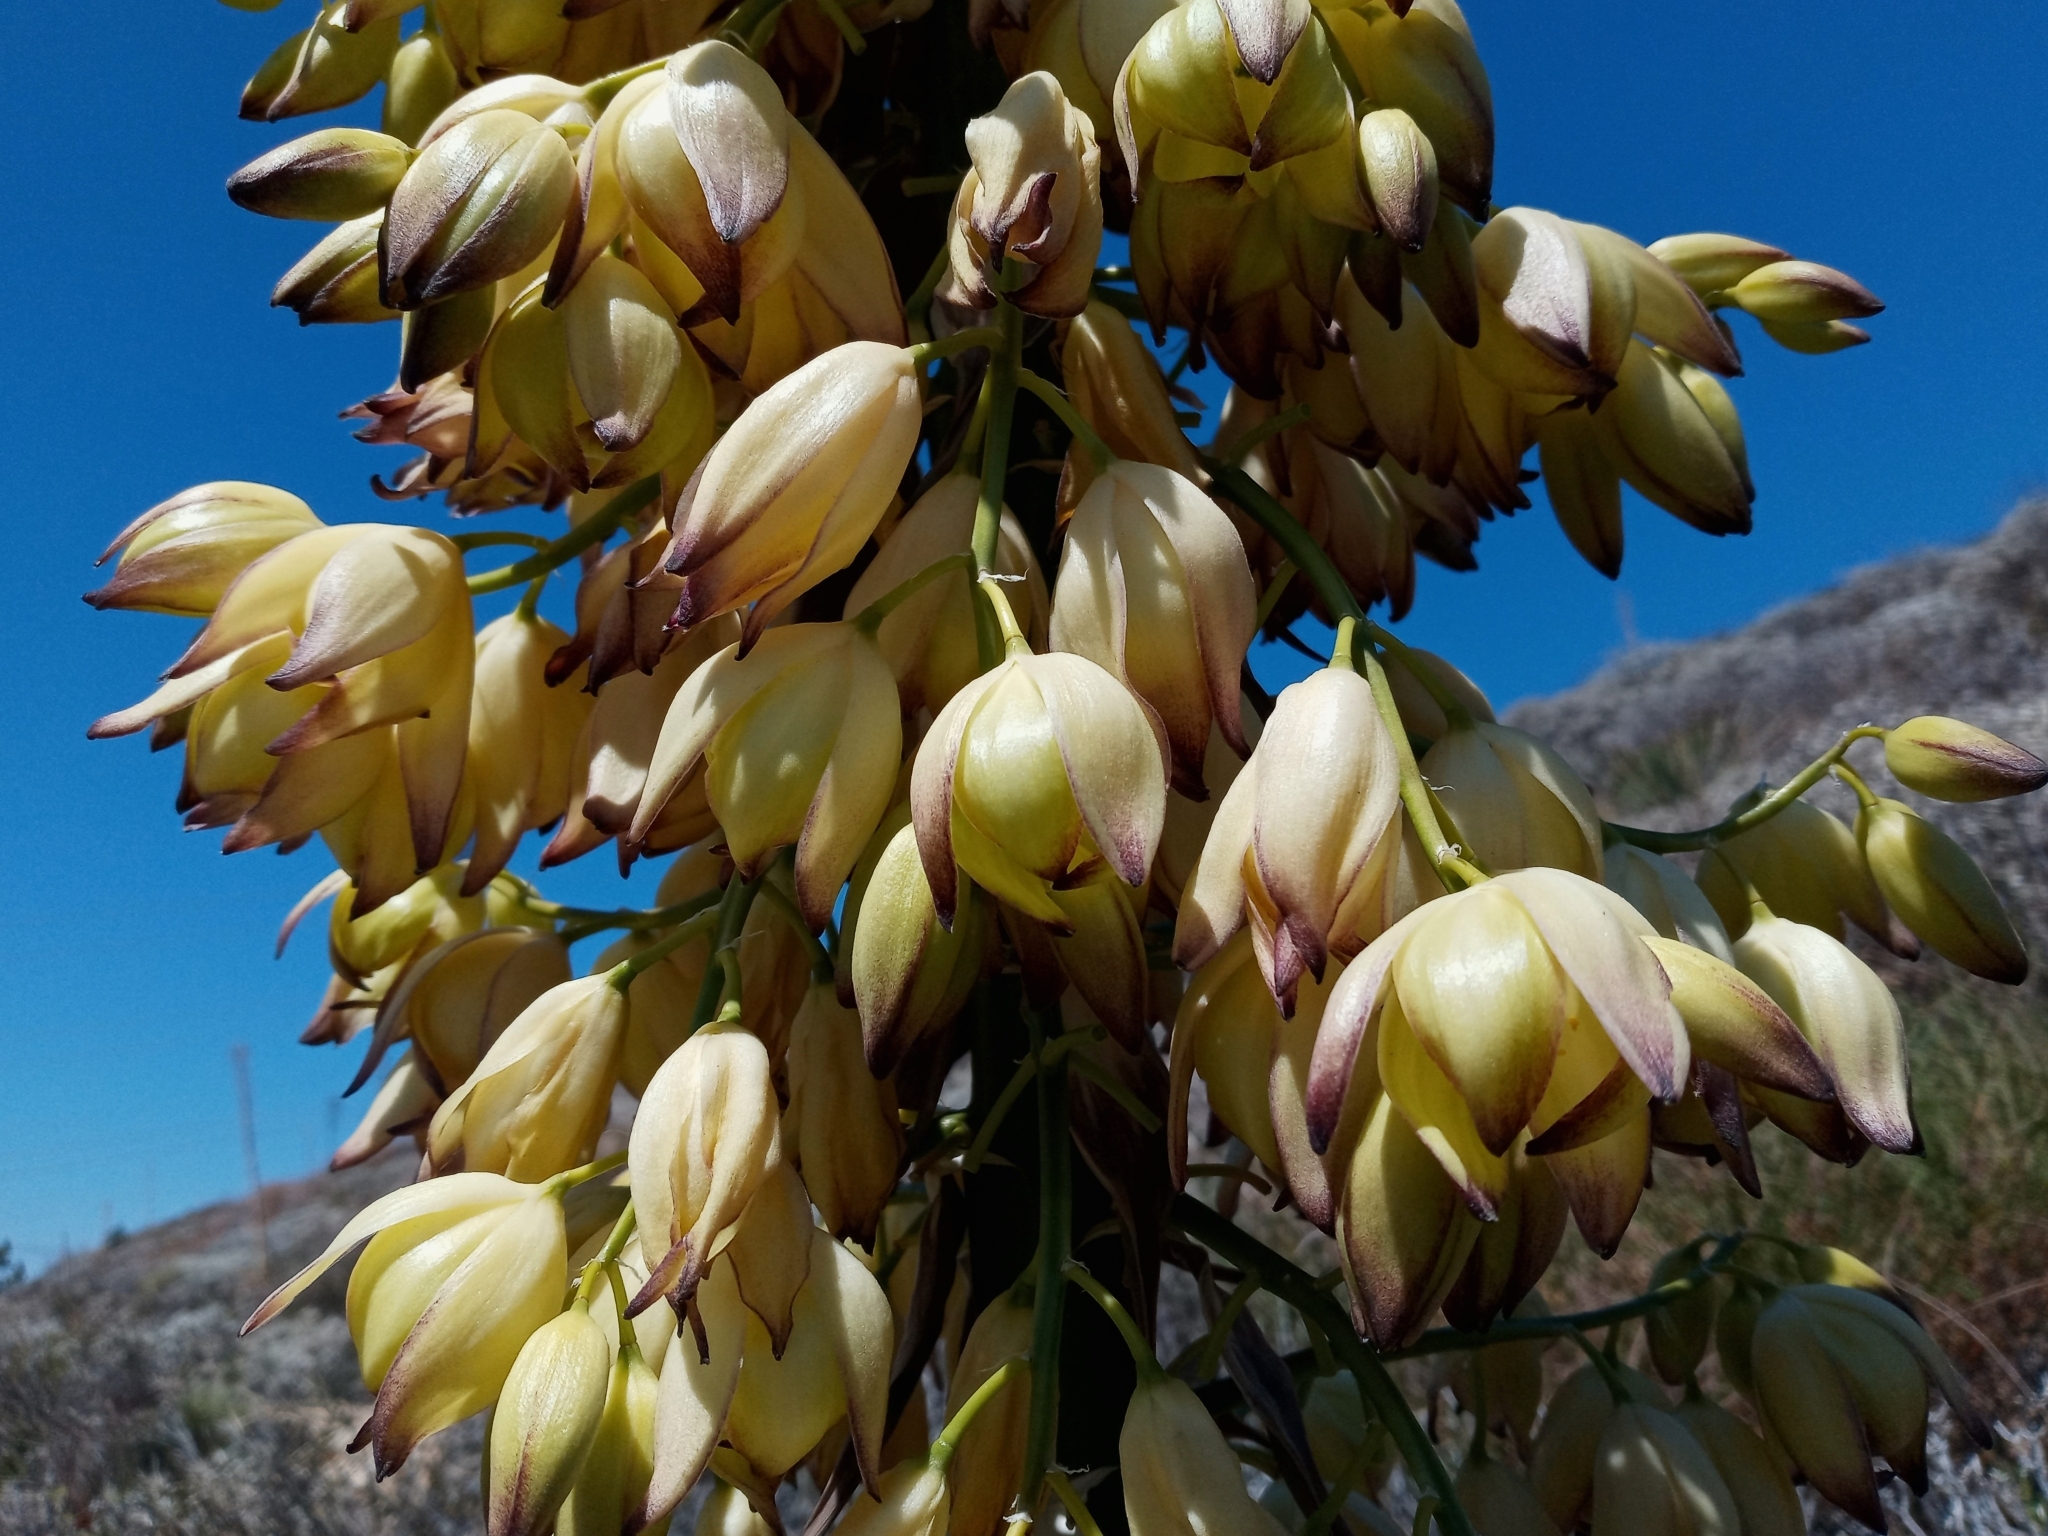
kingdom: Plantae
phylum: Tracheophyta
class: Liliopsida
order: Asparagales
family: Asparagaceae
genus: Hesperoyucca
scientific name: Hesperoyucca whipplei
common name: Our lord's-candle
